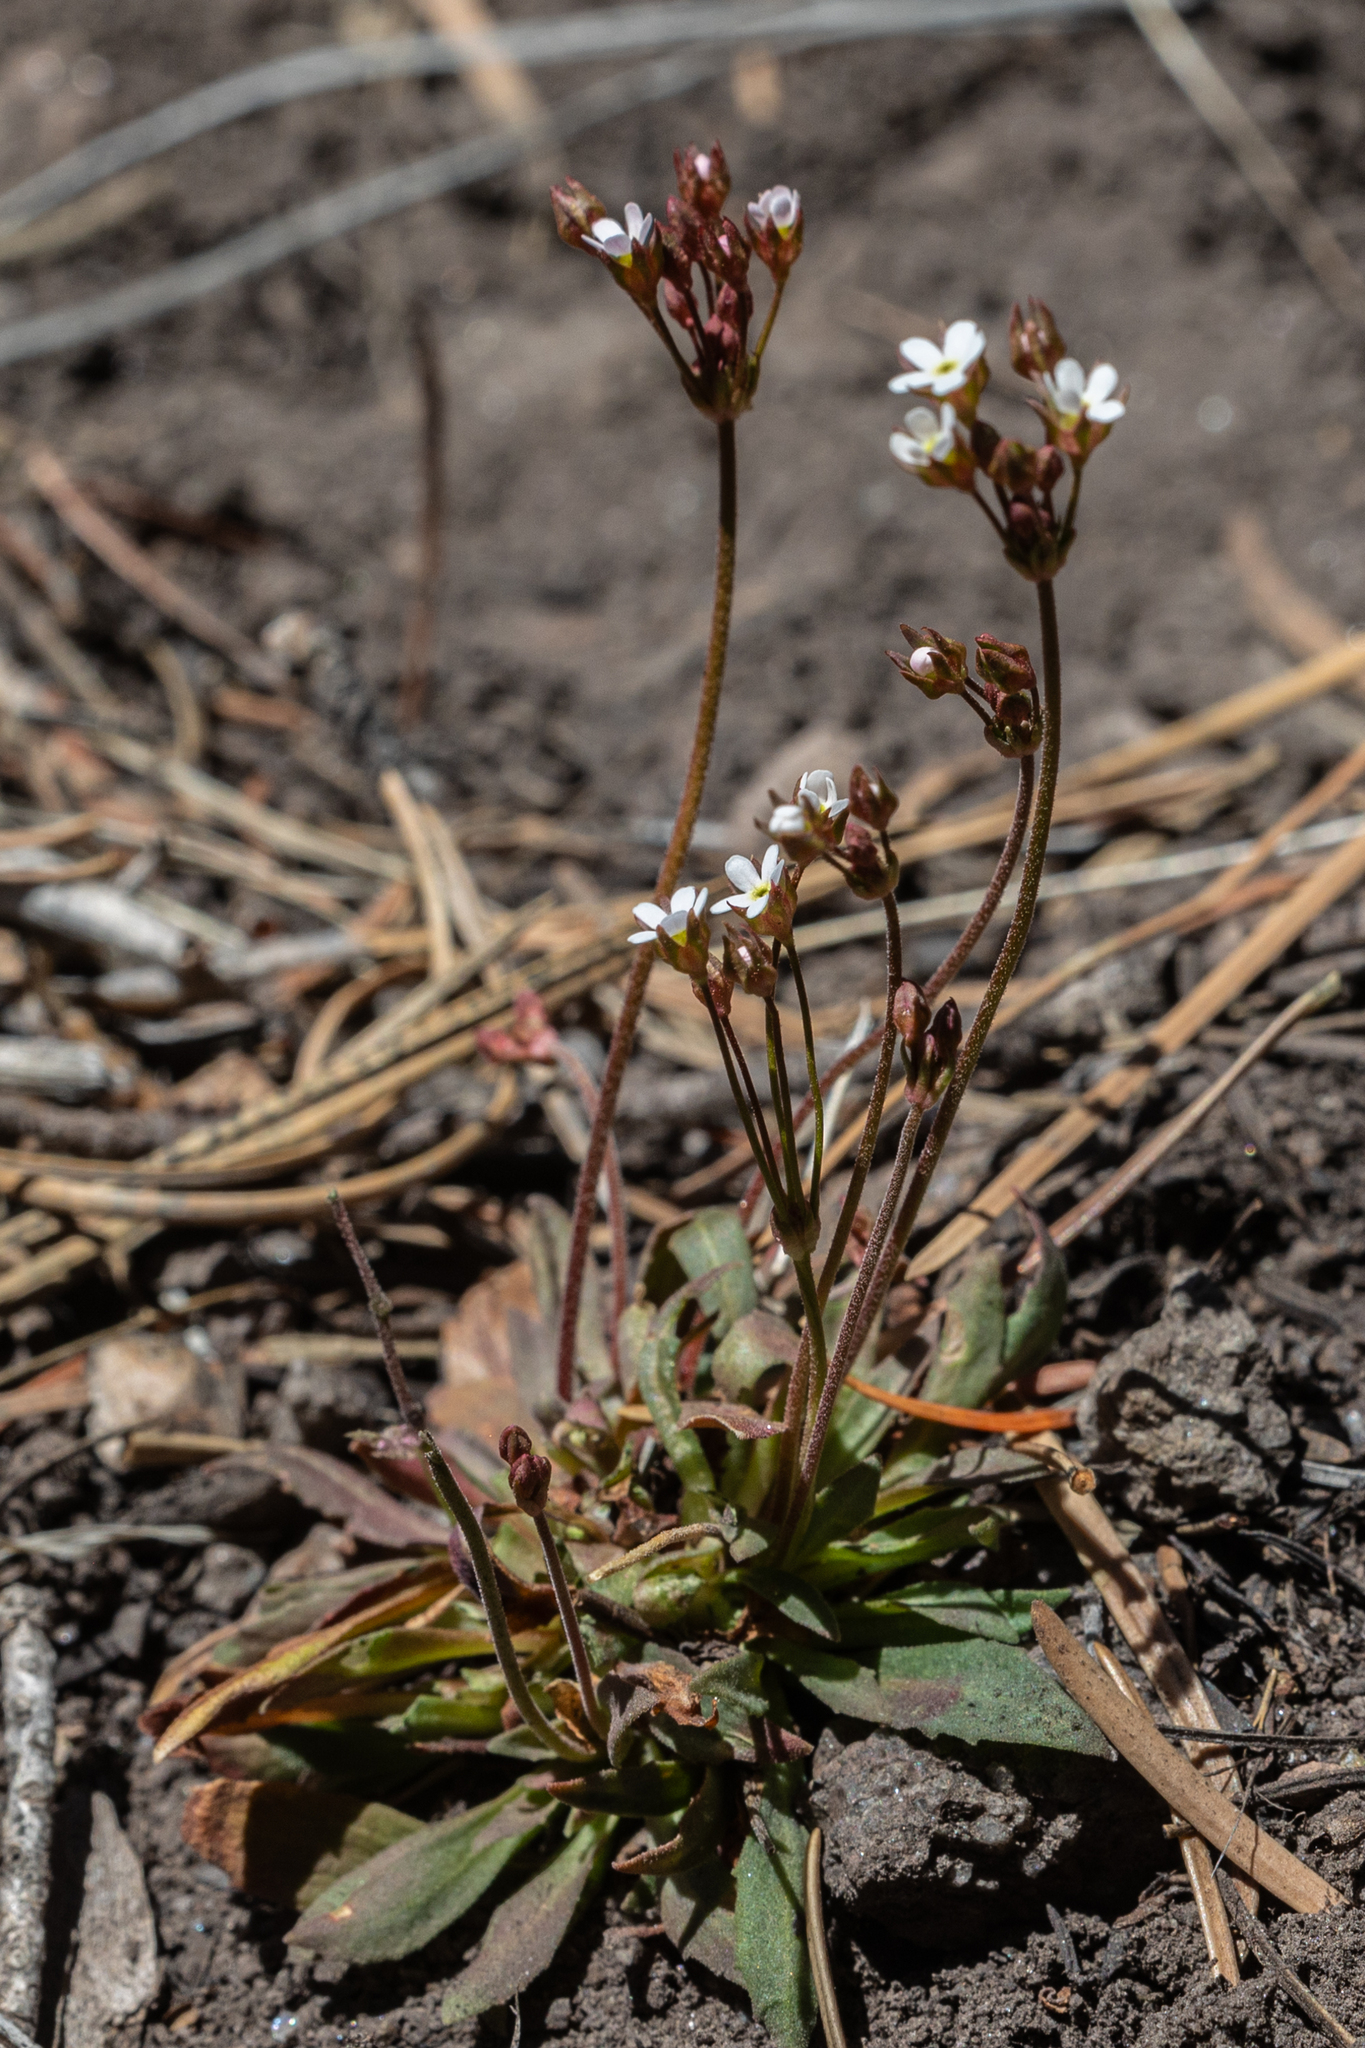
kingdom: Plantae
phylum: Tracheophyta
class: Magnoliopsida
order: Ericales
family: Primulaceae
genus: Androsace
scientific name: Androsace septentrionalis
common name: Hairy northern fairy-candelabra
